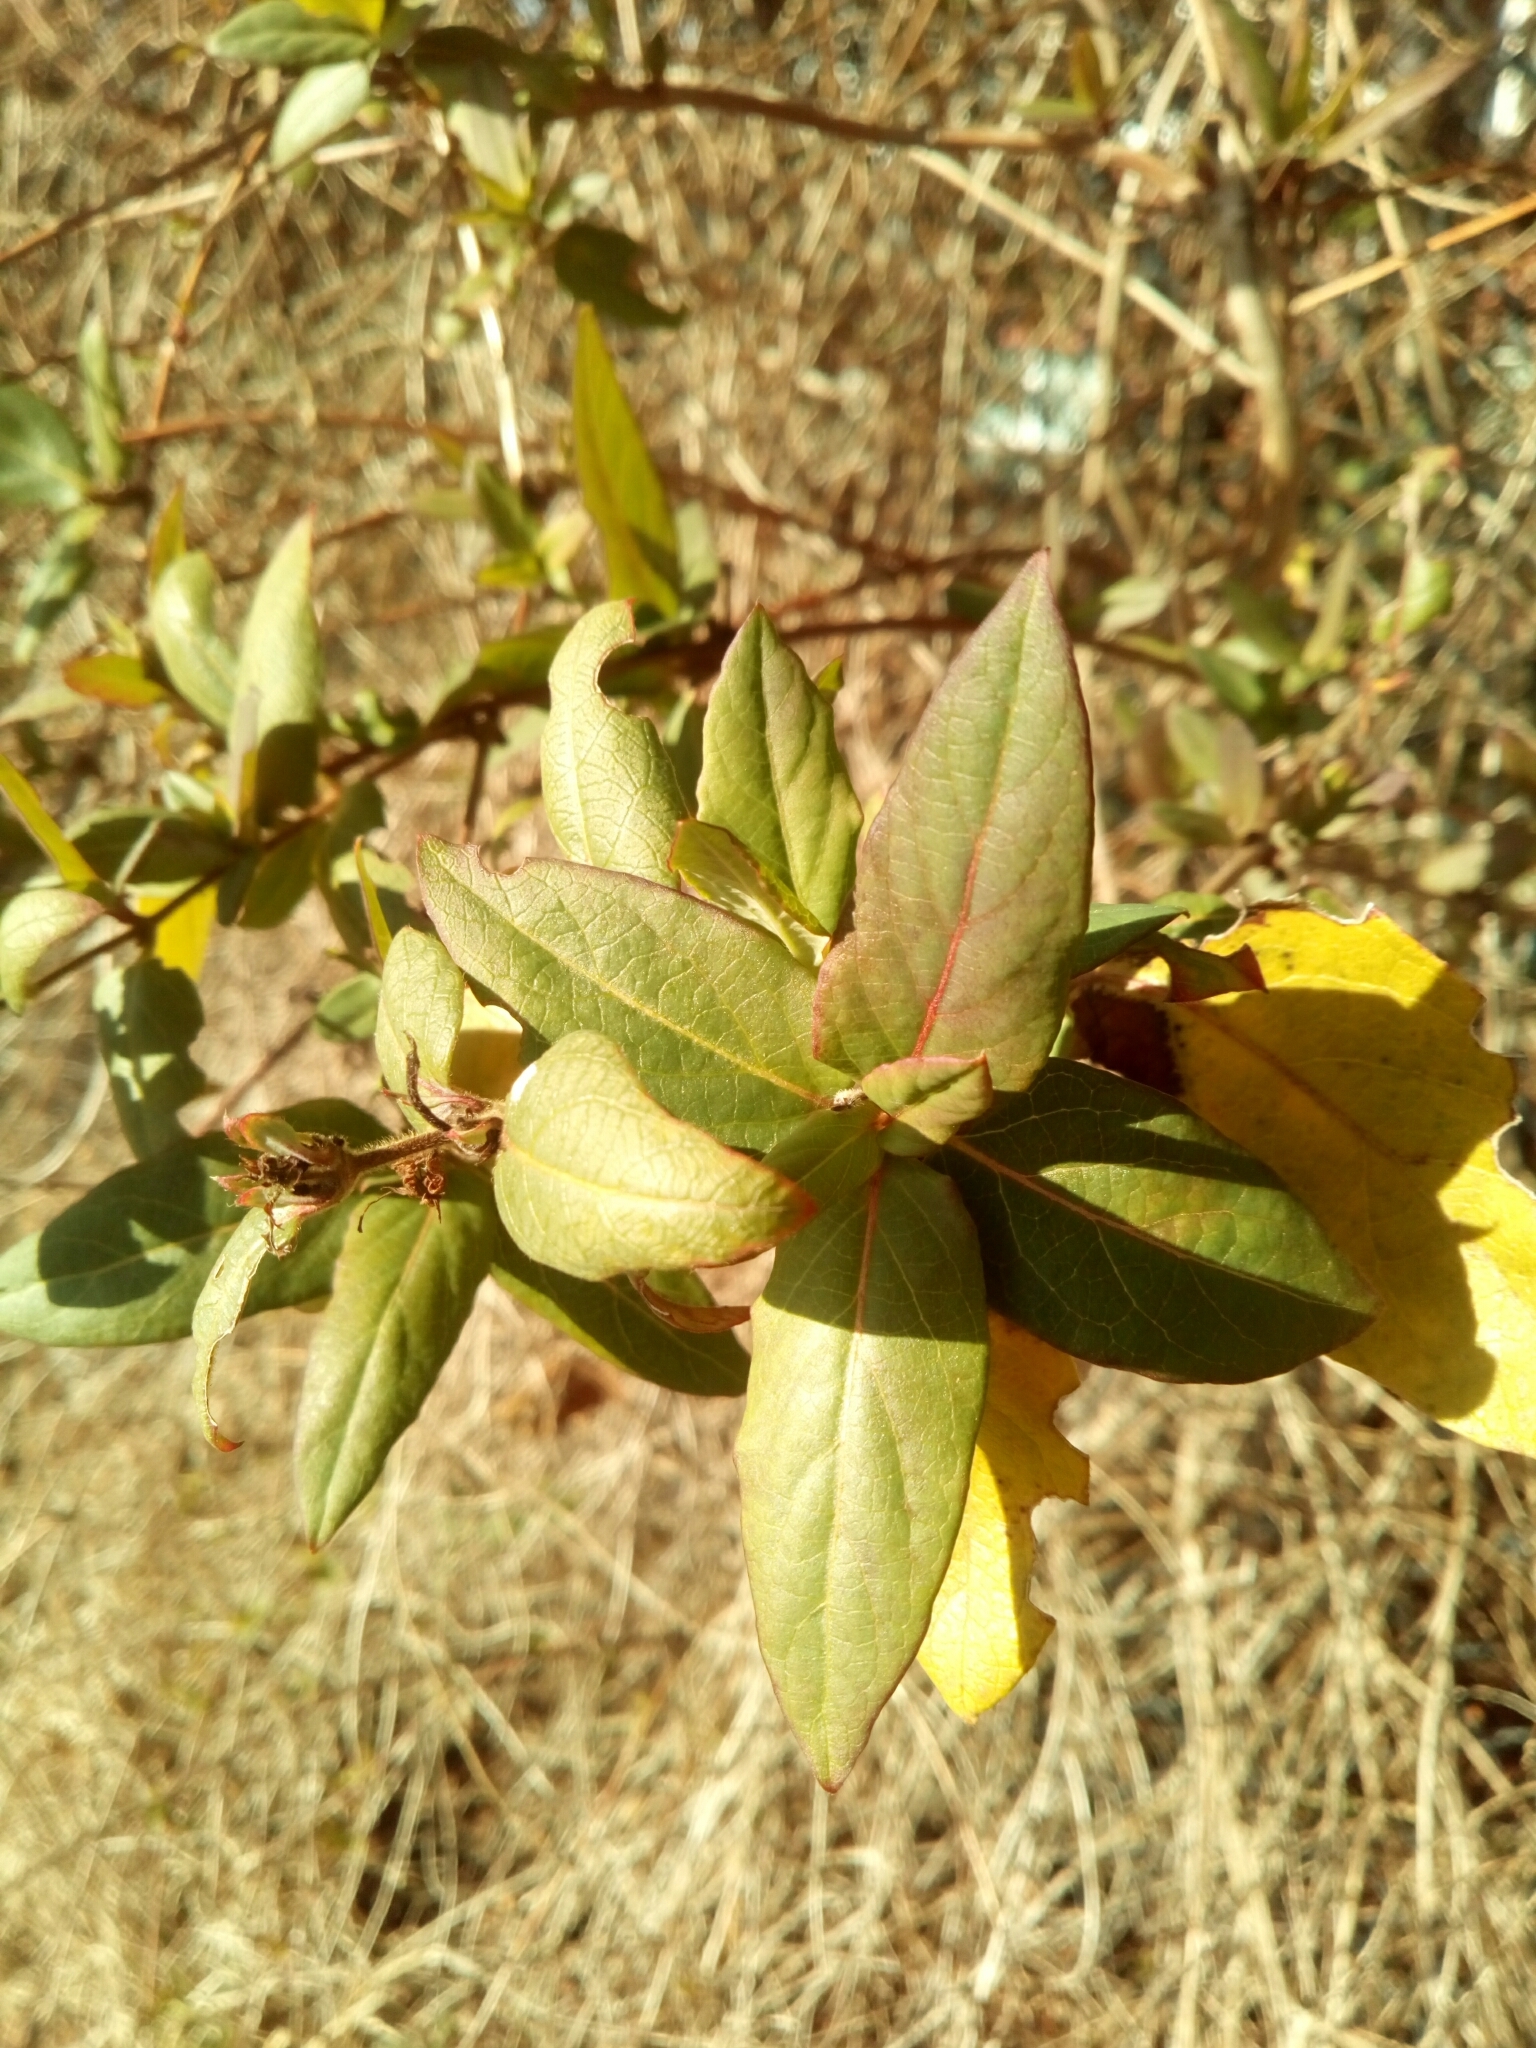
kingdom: Plantae
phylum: Tracheophyta
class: Magnoliopsida
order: Dipsacales
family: Caprifoliaceae
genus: Lonicera
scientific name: Lonicera japonica
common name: Japanese honeysuckle
